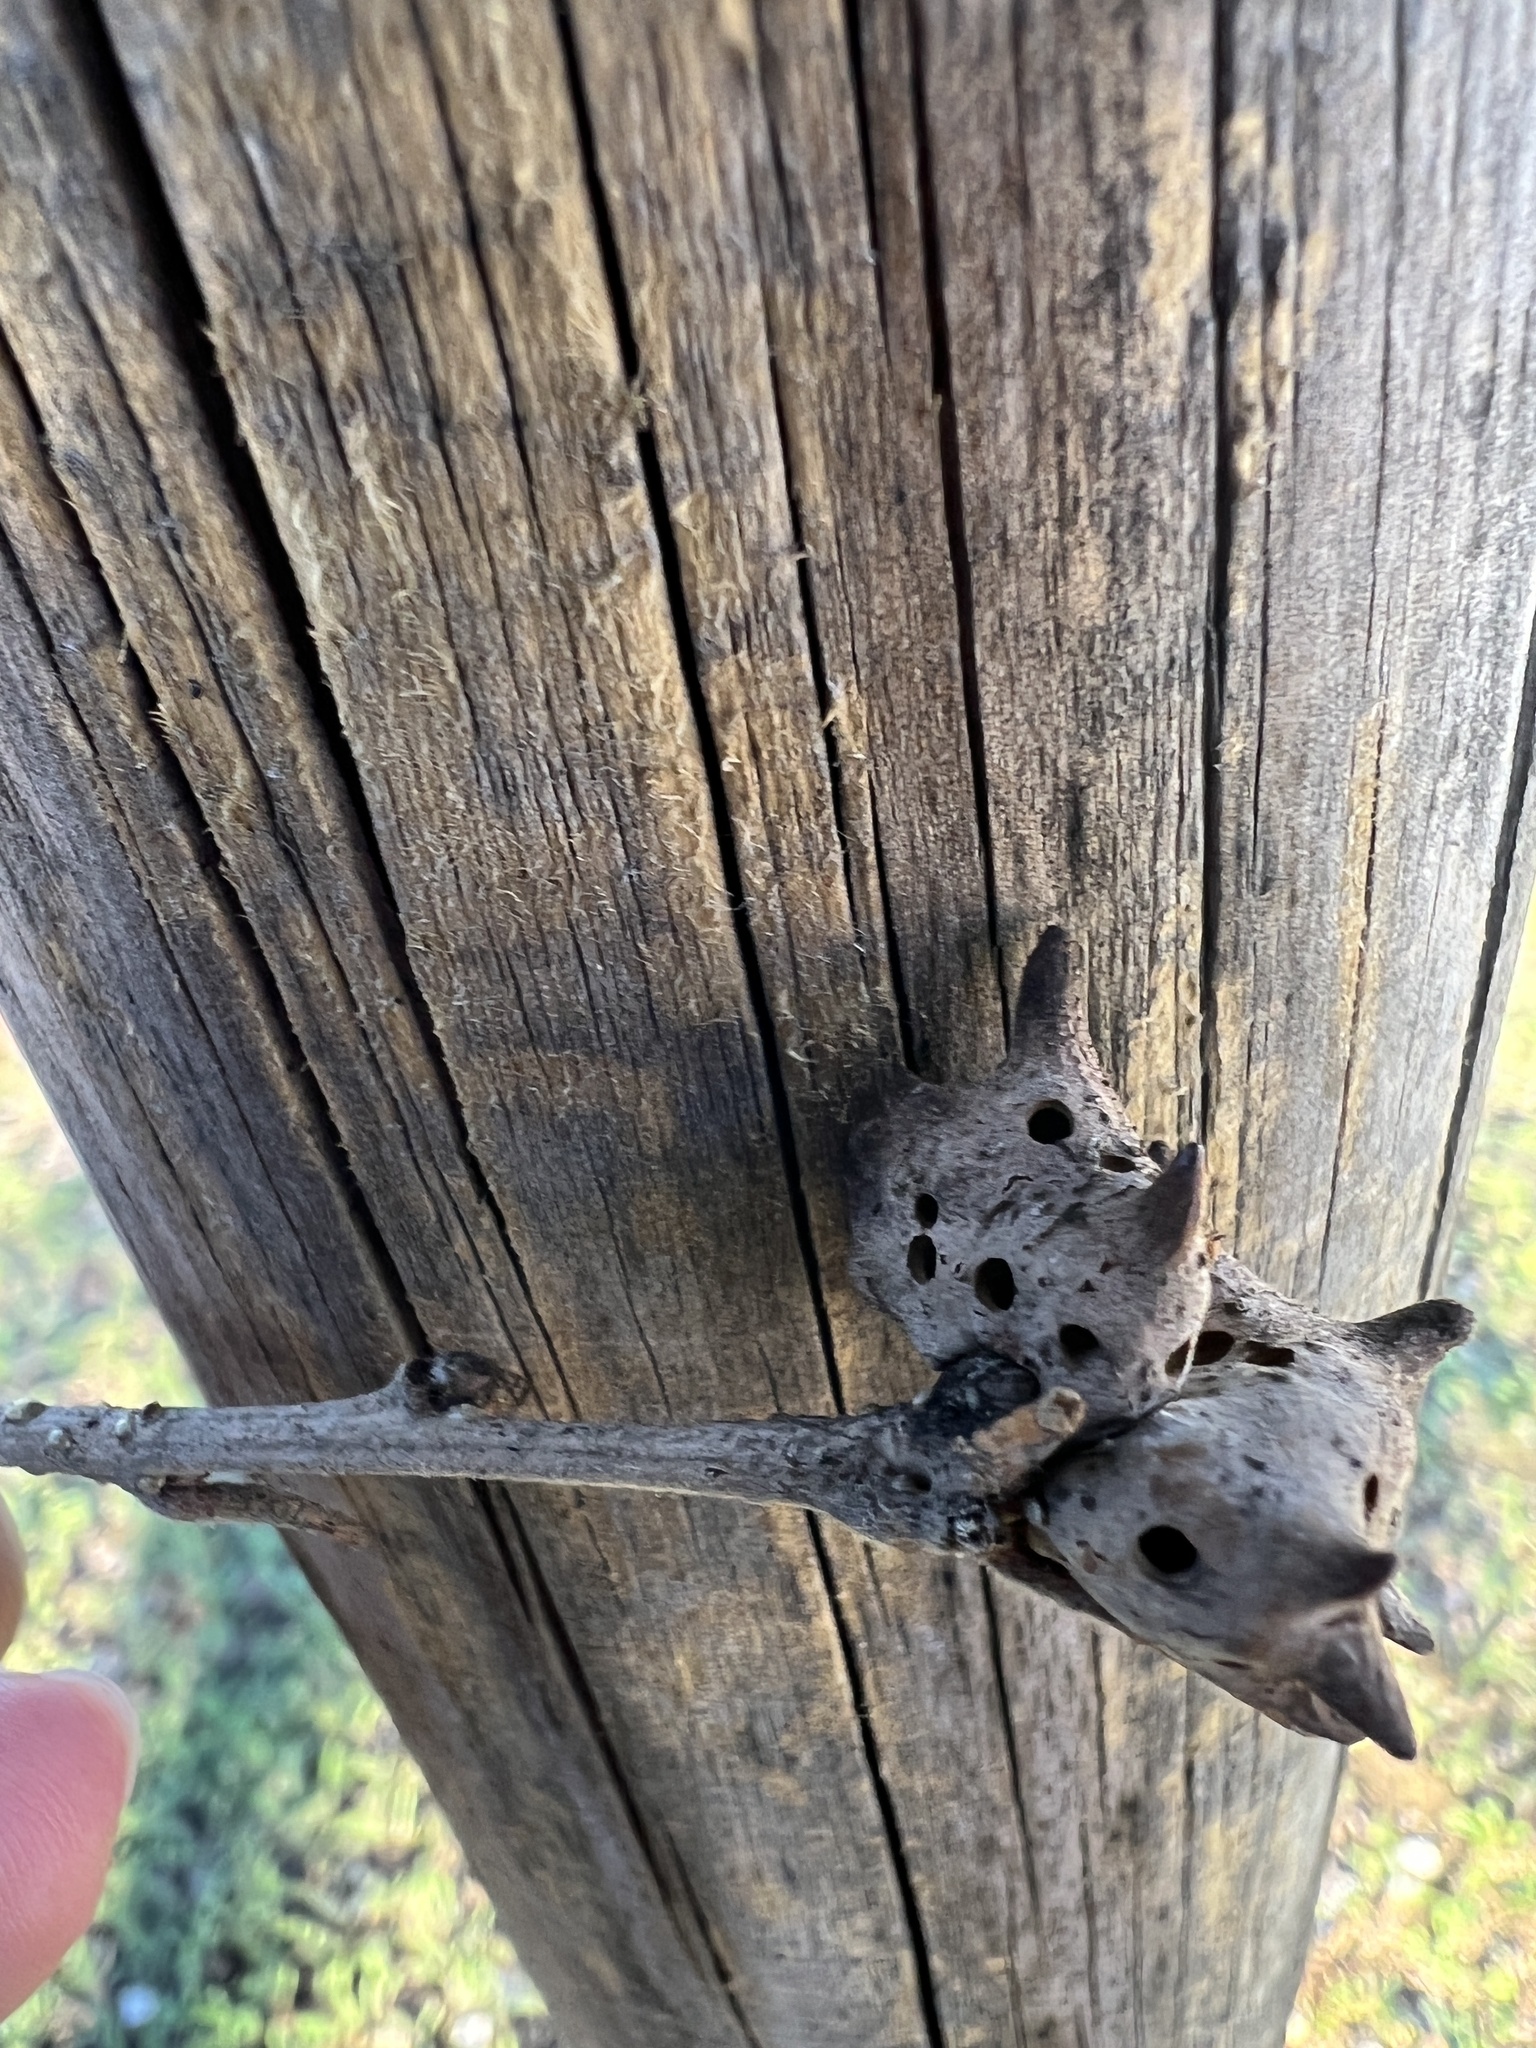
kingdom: Animalia
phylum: Arthropoda
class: Insecta
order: Hymenoptera
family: Cynipidae
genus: Andricus
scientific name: Andricus coriarius
